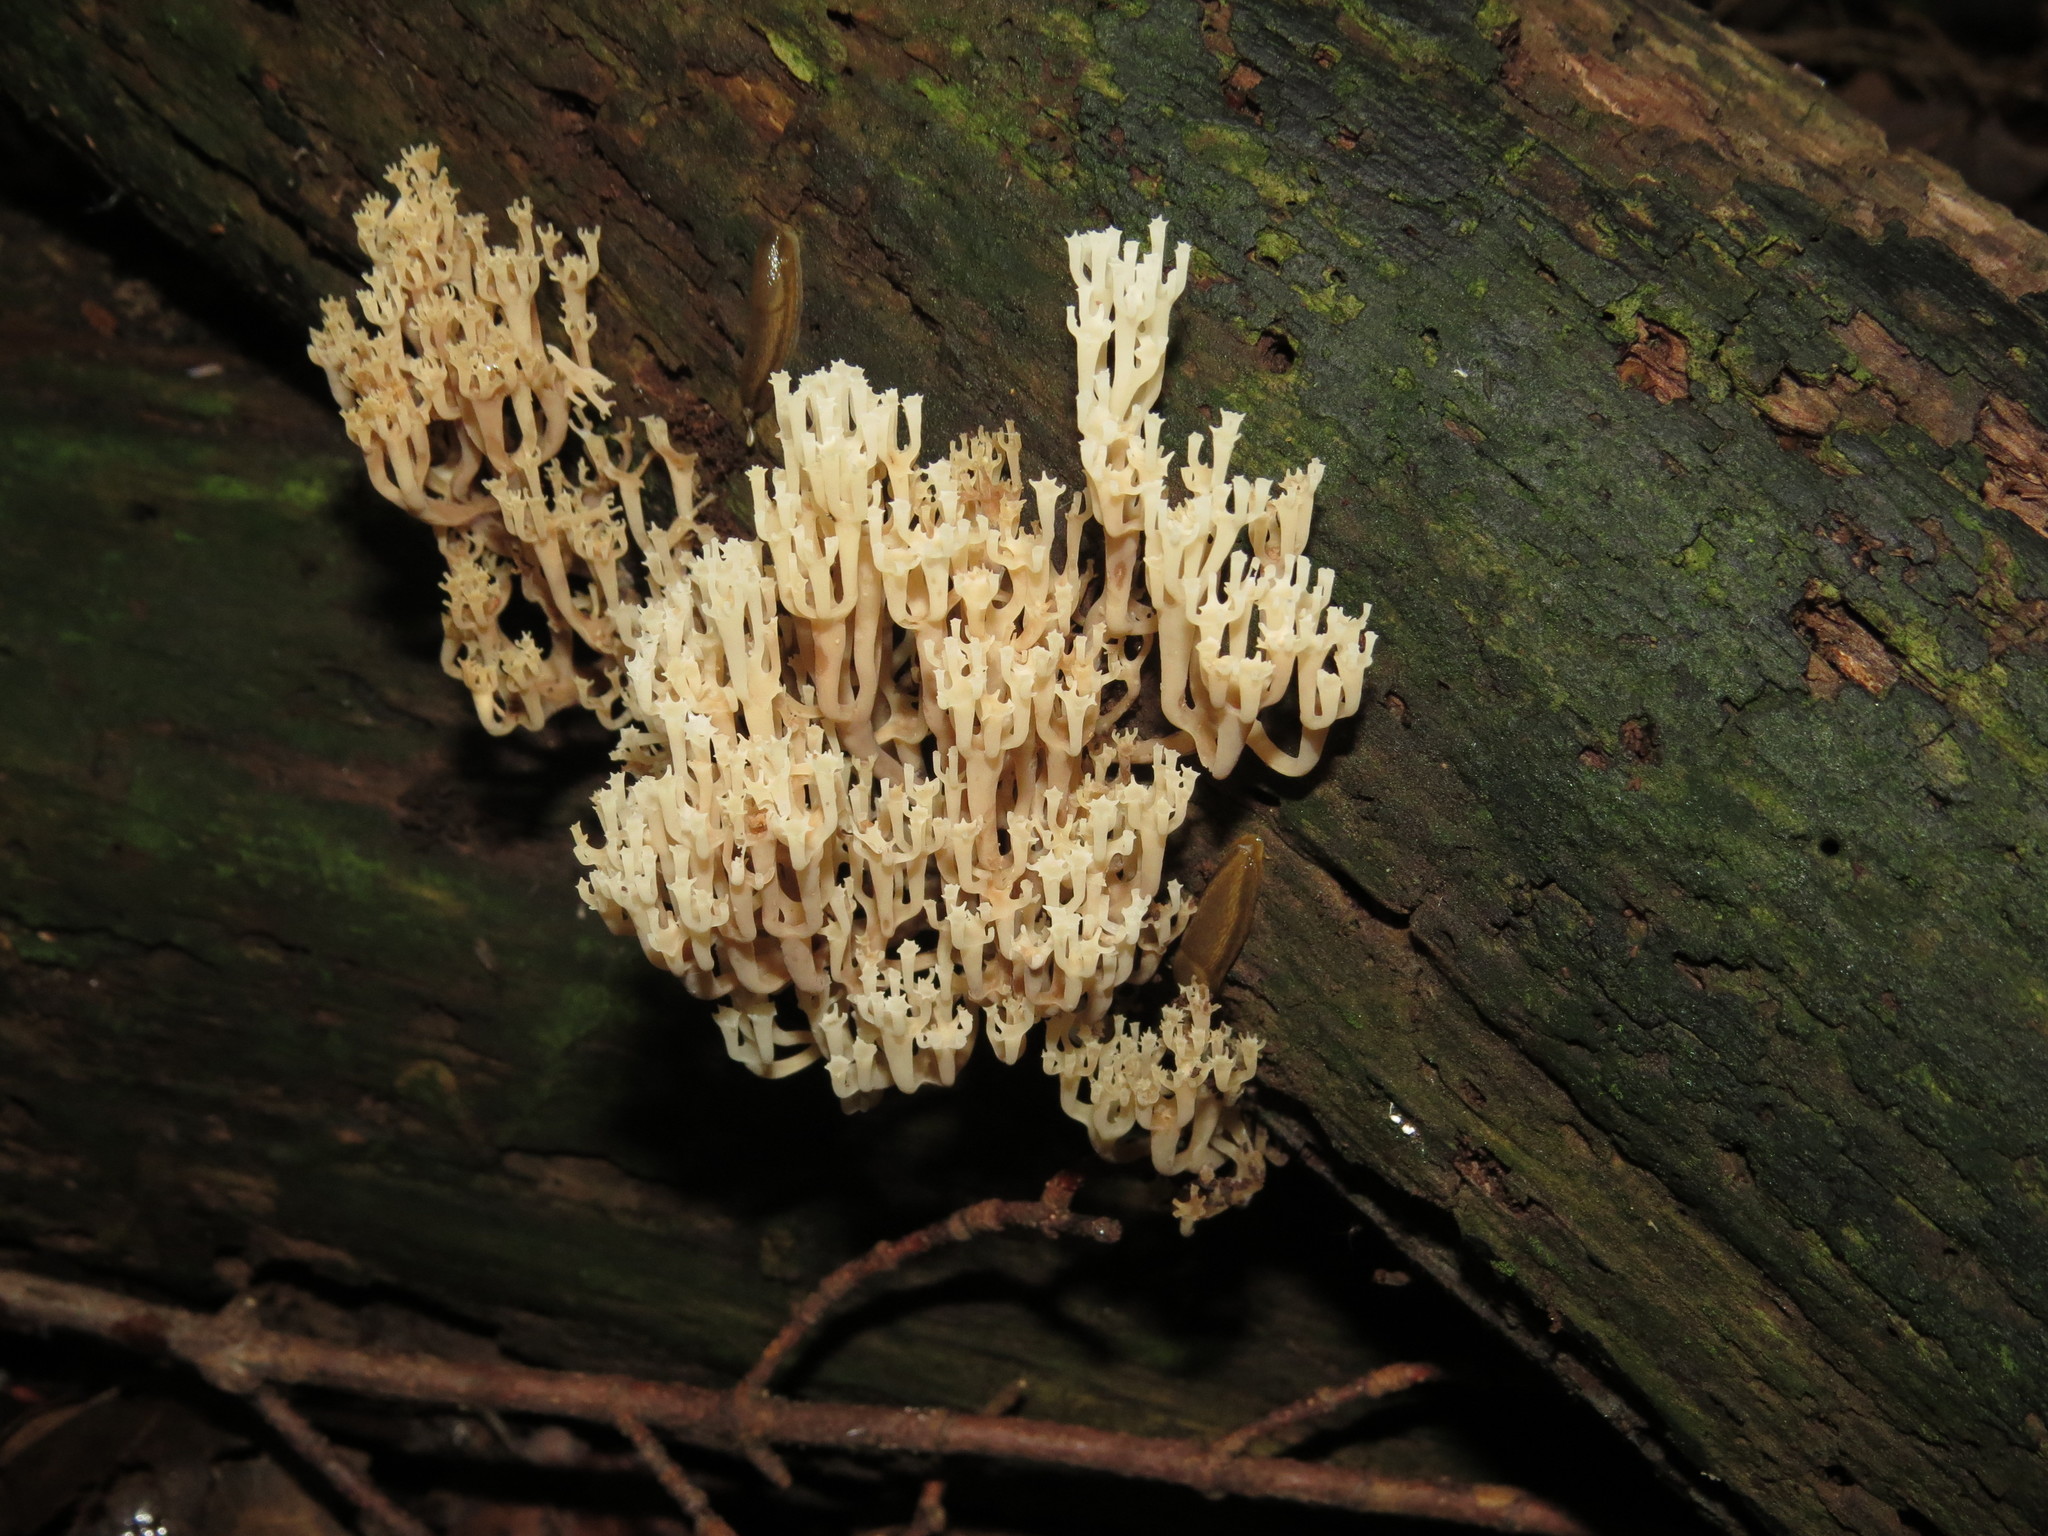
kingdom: Fungi
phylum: Basidiomycota
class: Agaricomycetes
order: Russulales
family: Auriscalpiaceae
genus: Artomyces
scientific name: Artomyces pyxidatus
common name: Crown-tipped coral fungus
